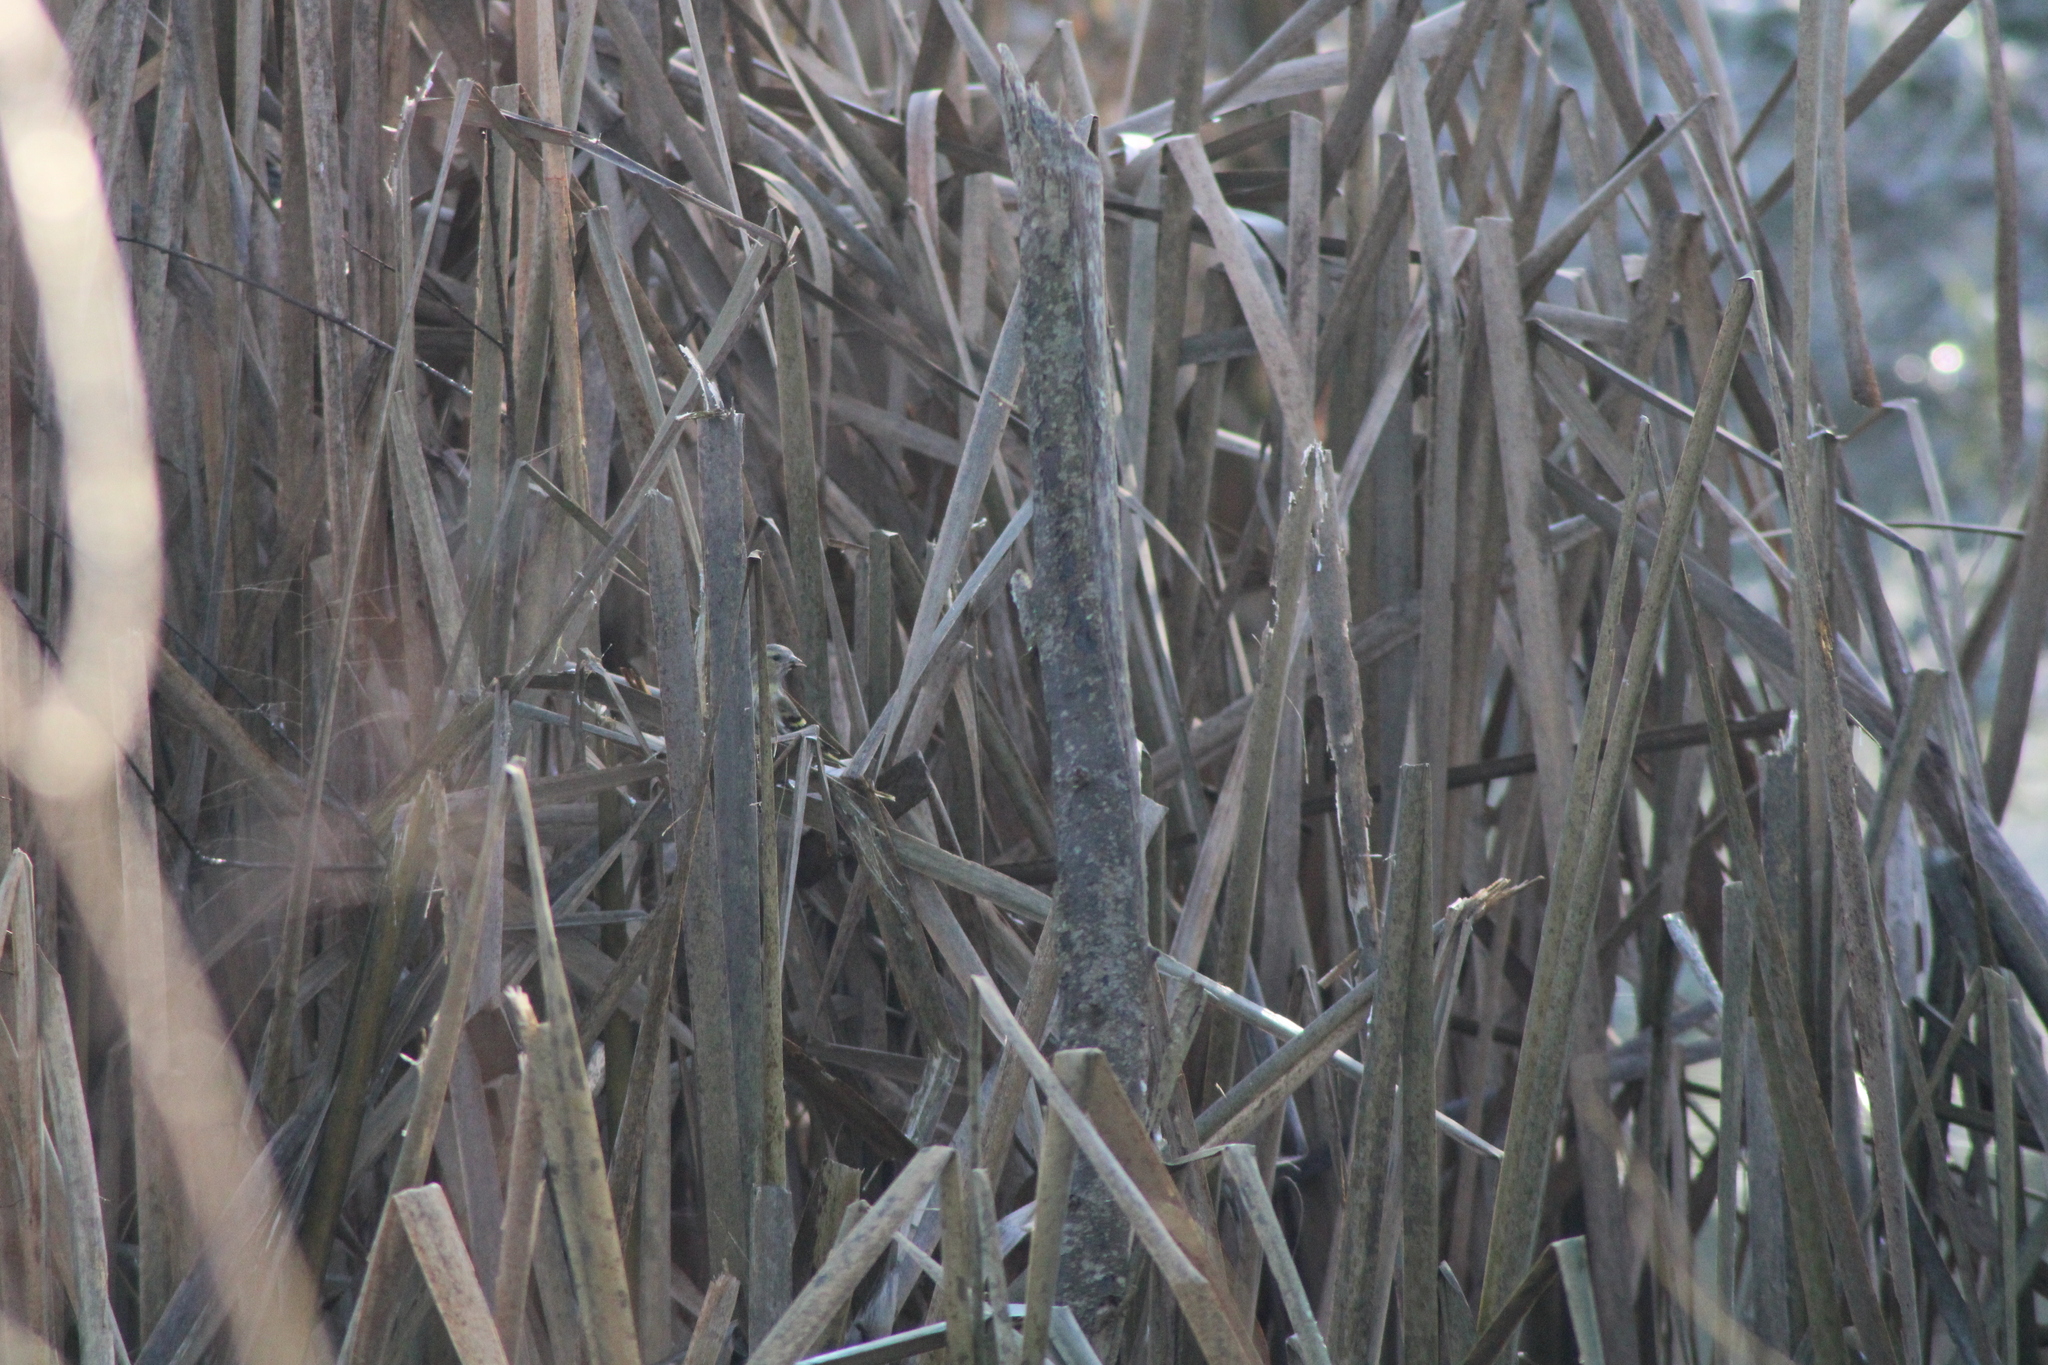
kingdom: Animalia
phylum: Chordata
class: Aves
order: Passeriformes
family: Fringillidae
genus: Spinus
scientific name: Spinus spinus
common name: Eurasian siskin
